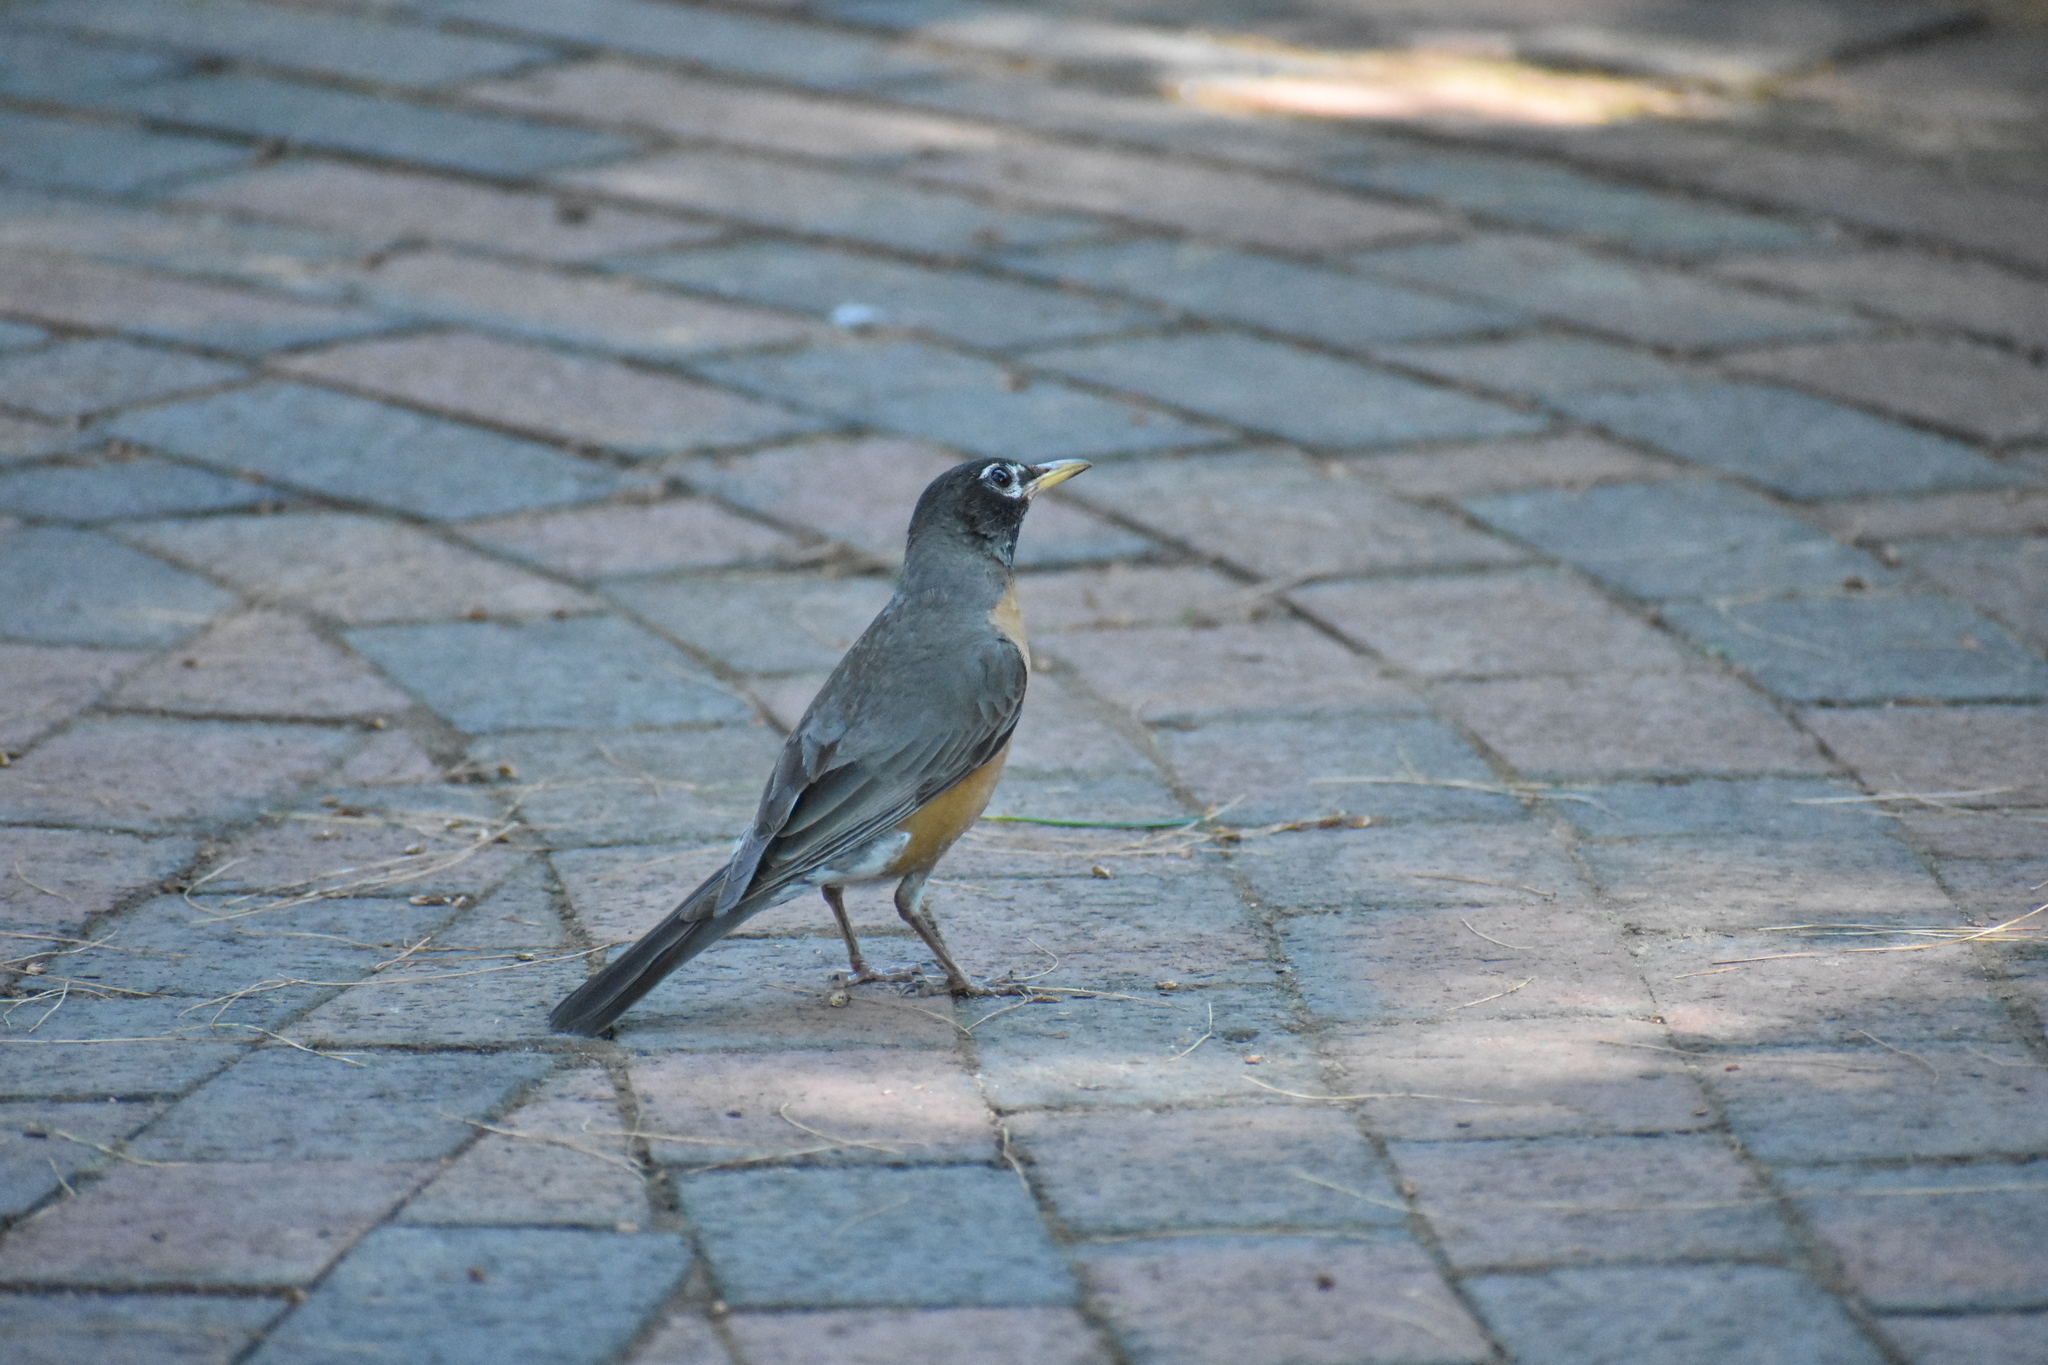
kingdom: Animalia
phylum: Chordata
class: Aves
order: Passeriformes
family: Turdidae
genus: Turdus
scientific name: Turdus migratorius
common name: American robin
